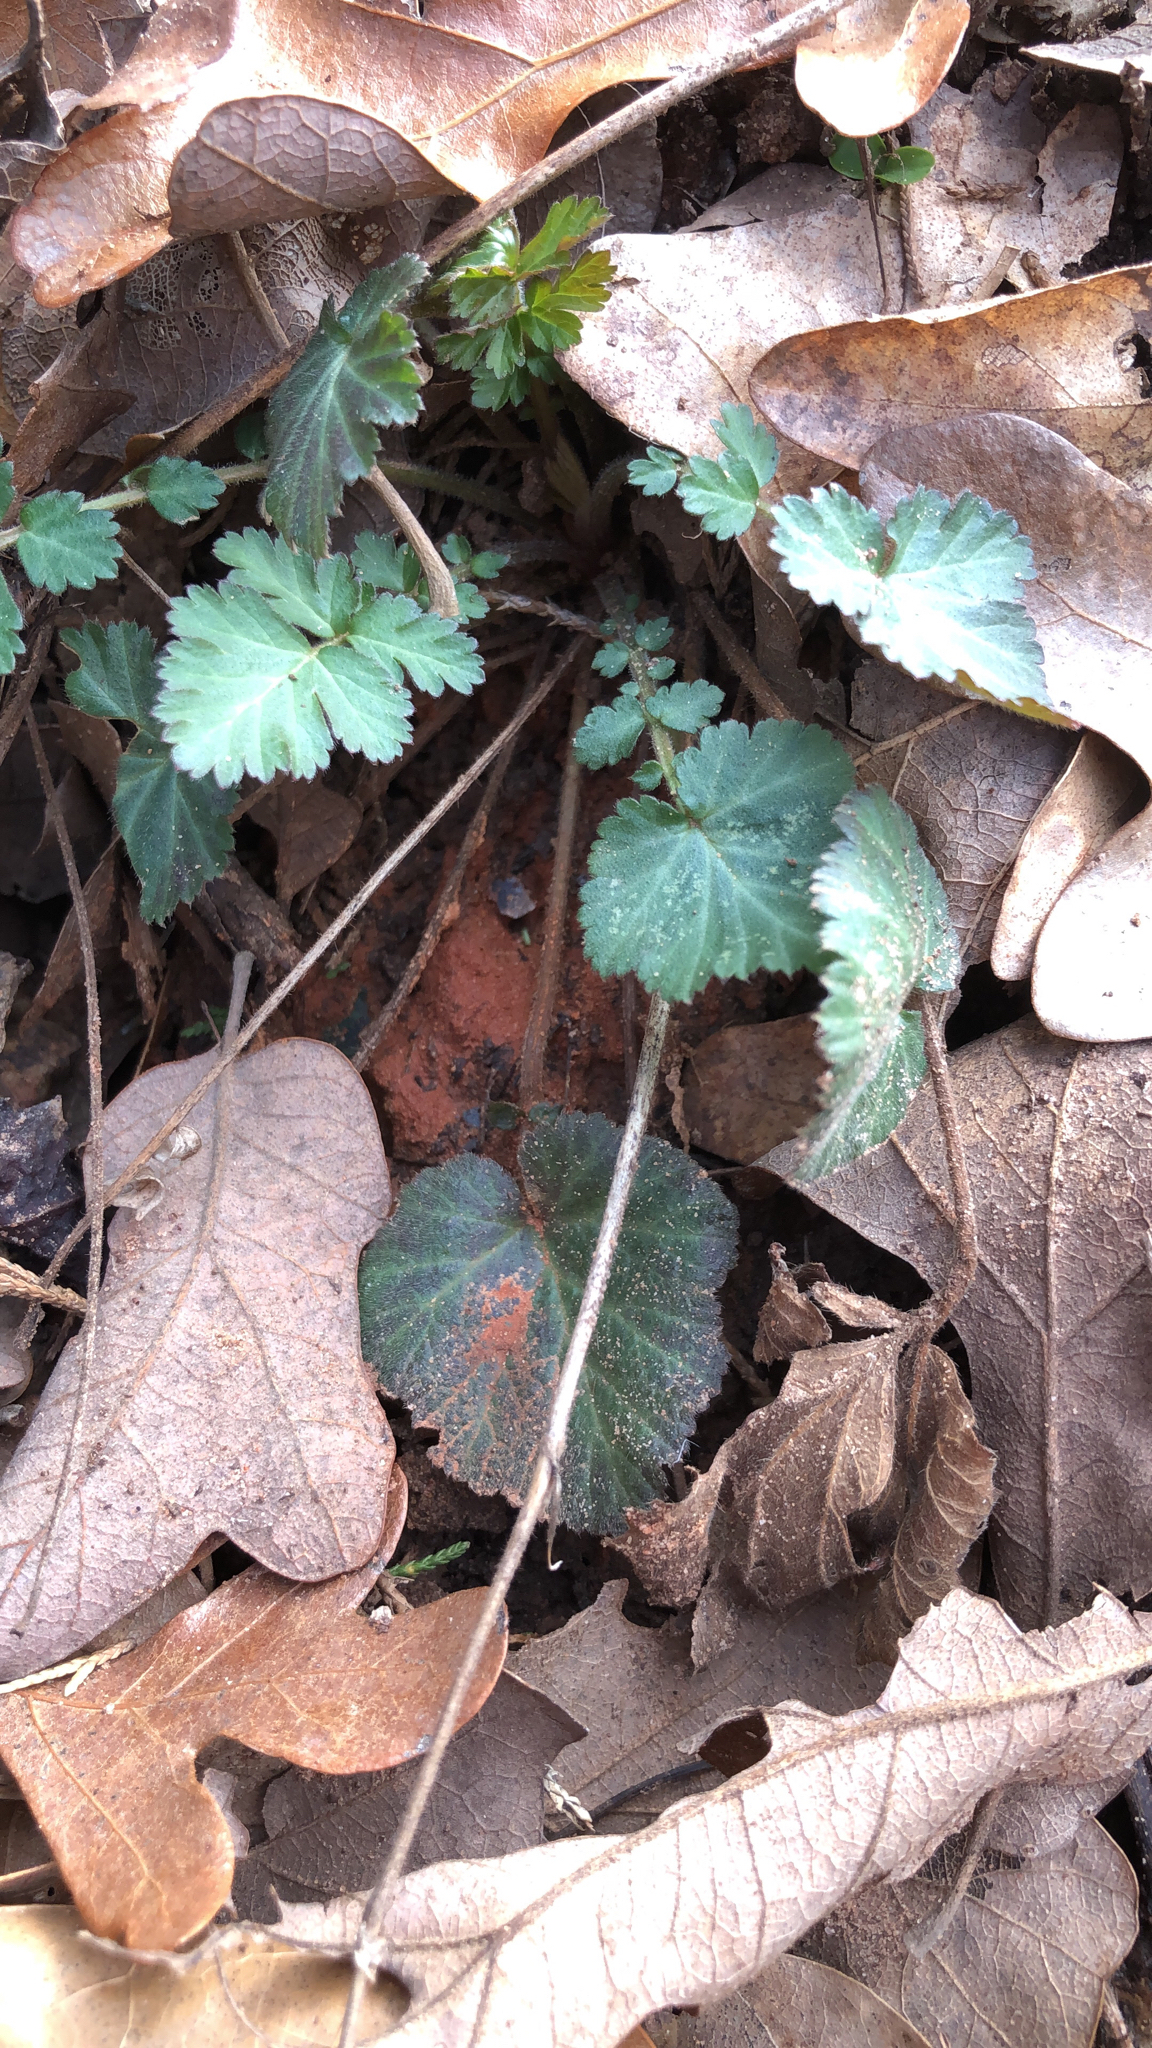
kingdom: Plantae
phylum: Tracheophyta
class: Magnoliopsida
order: Rosales
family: Rosaceae
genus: Geum
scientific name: Geum canadense
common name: White avens
